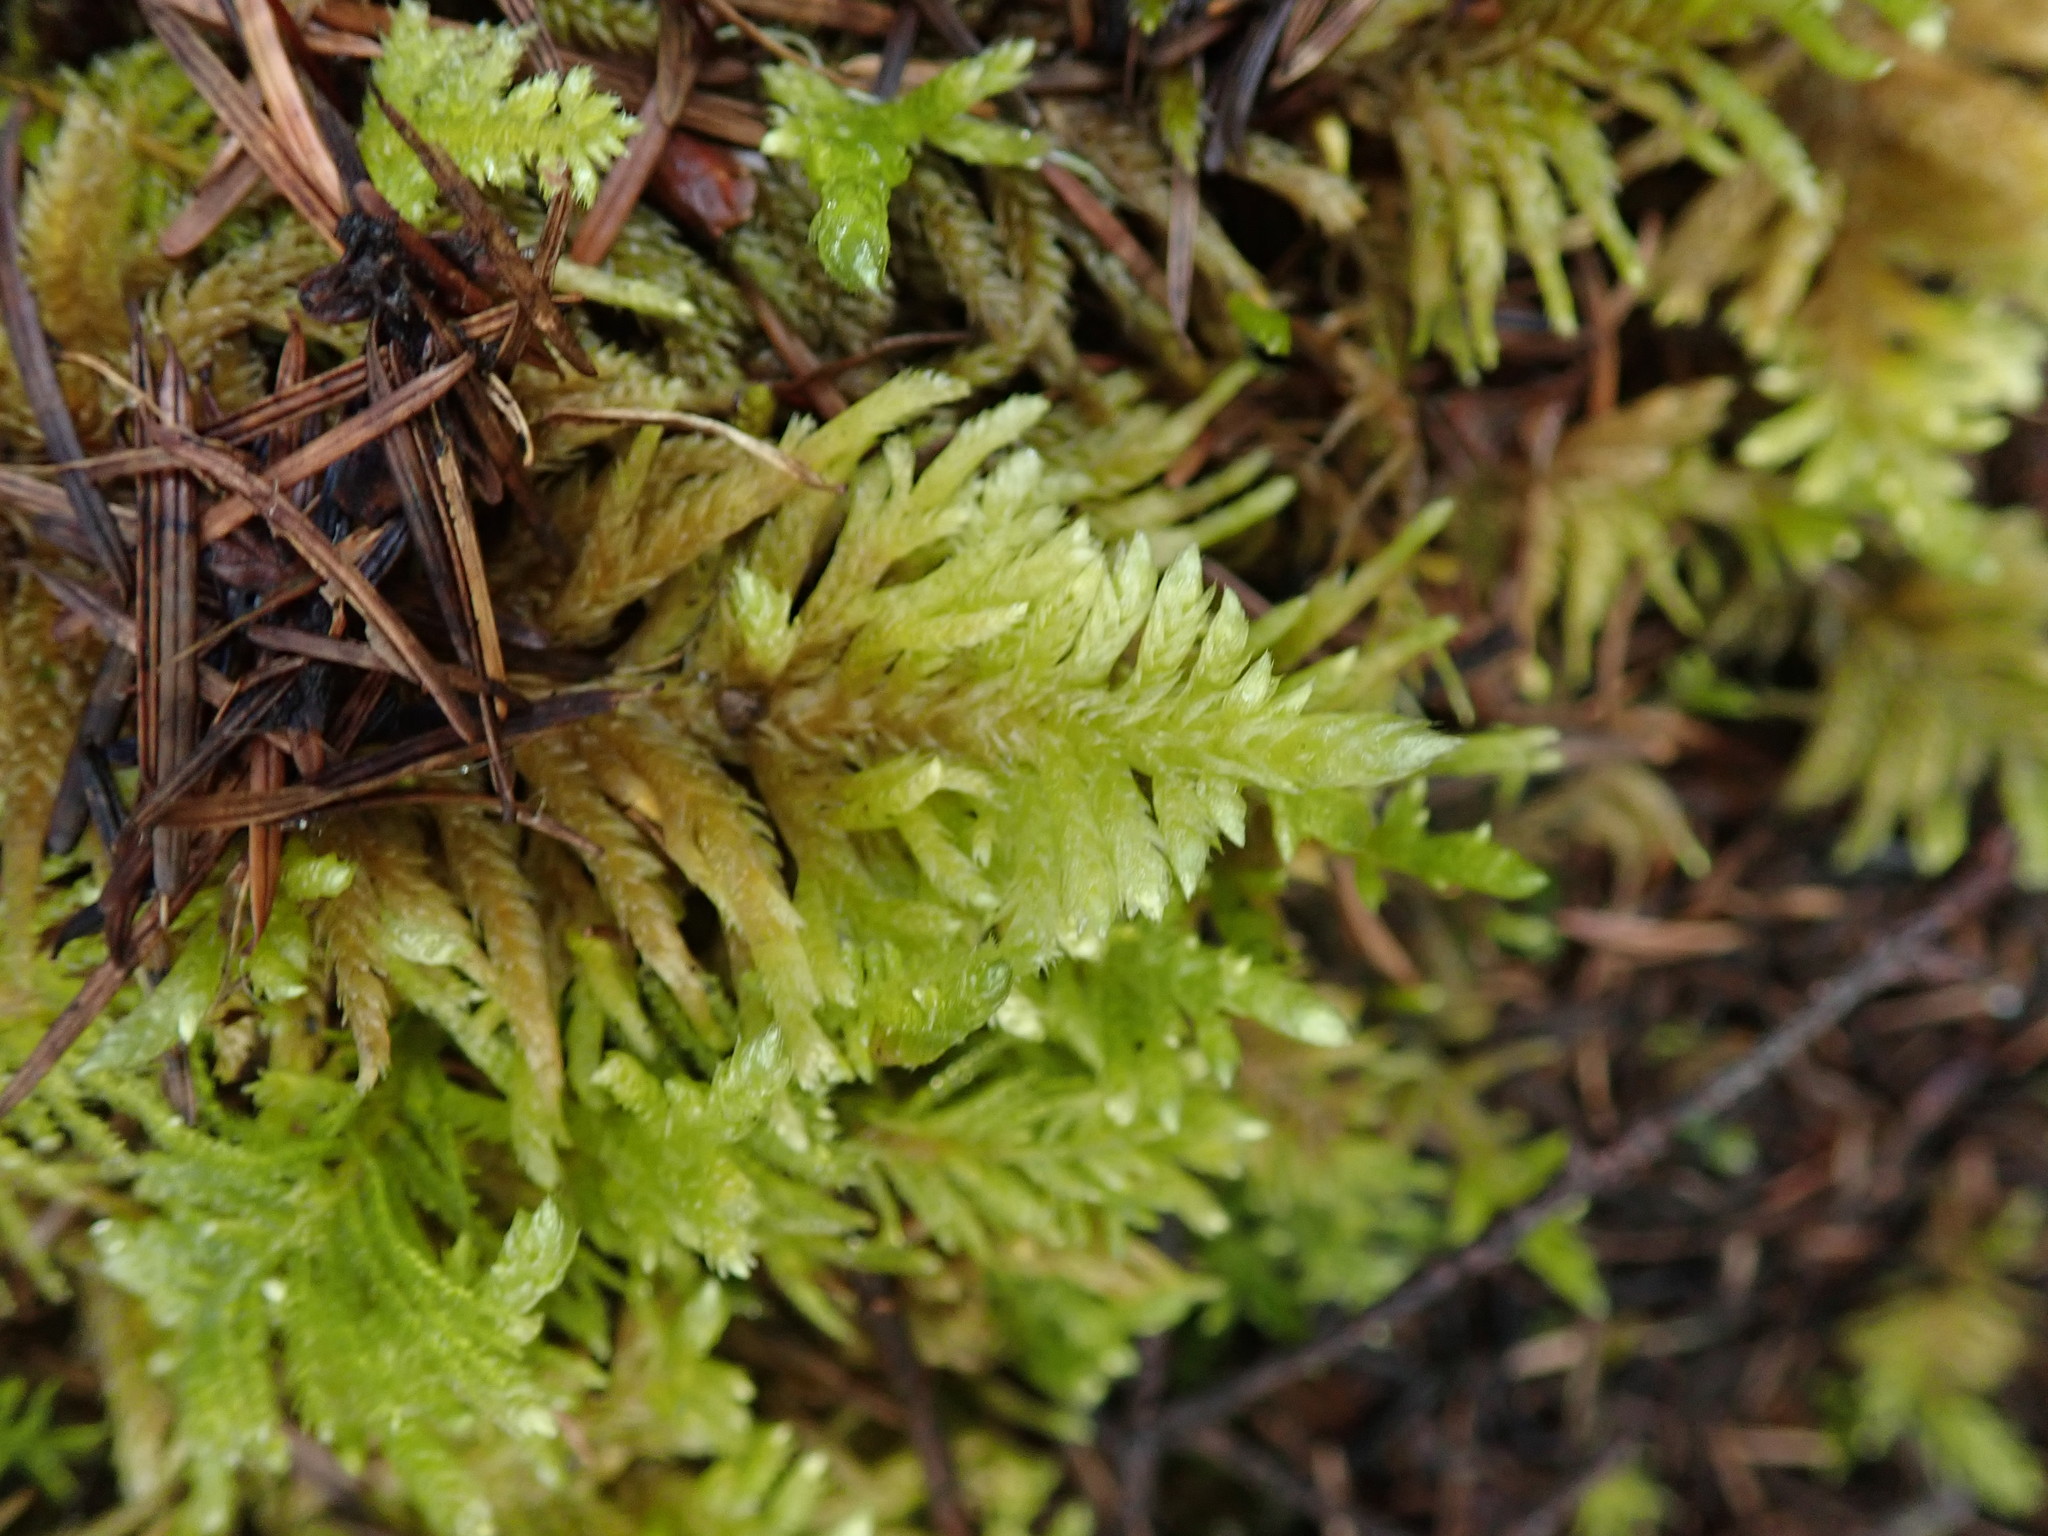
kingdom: Plantae
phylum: Bryophyta
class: Bryopsida
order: Hypnales
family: Brachytheciaceae
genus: Homalothecium
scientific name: Homalothecium megaptilum
